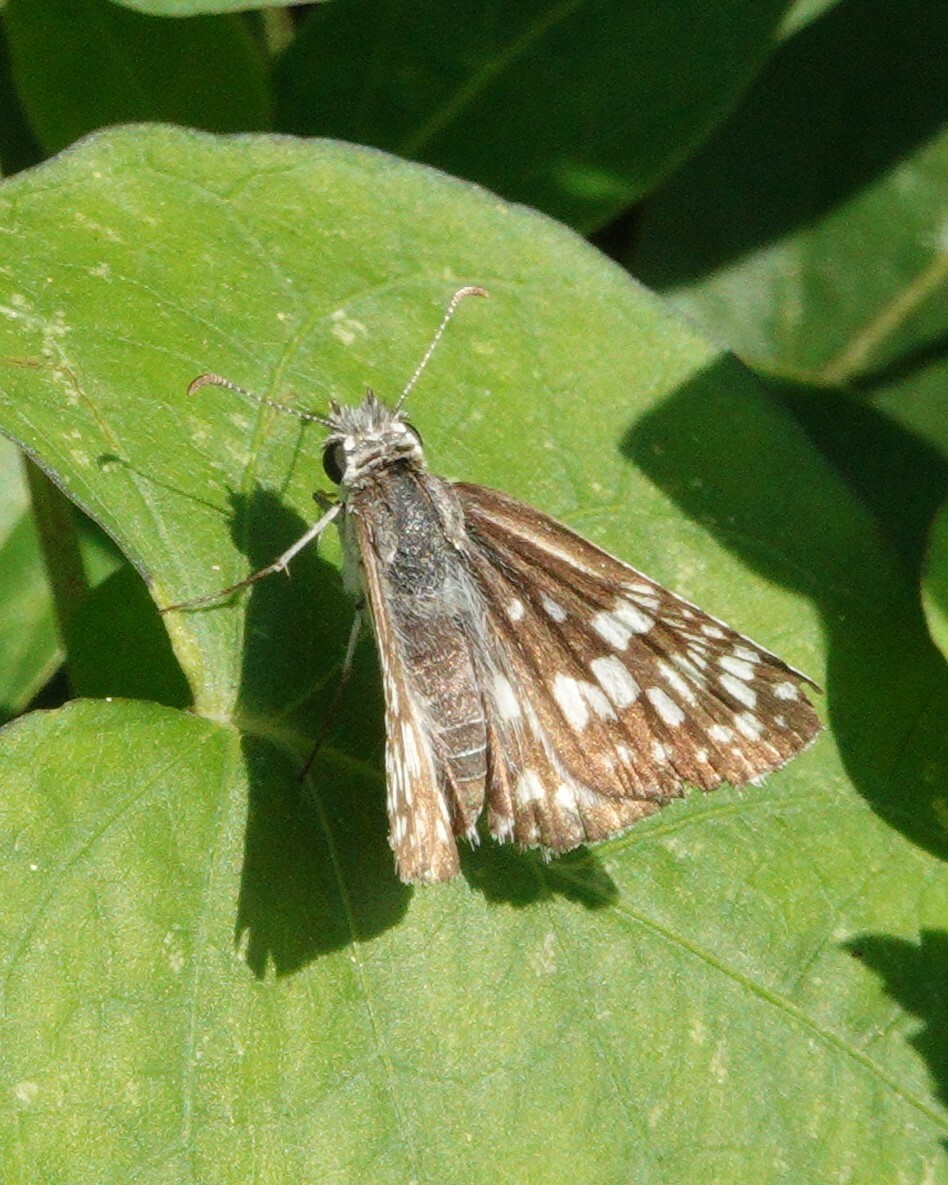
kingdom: Animalia
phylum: Arthropoda
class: Insecta
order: Lepidoptera
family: Hesperiidae
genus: Burnsius
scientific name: Burnsius communis
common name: Common checkered-skipper
